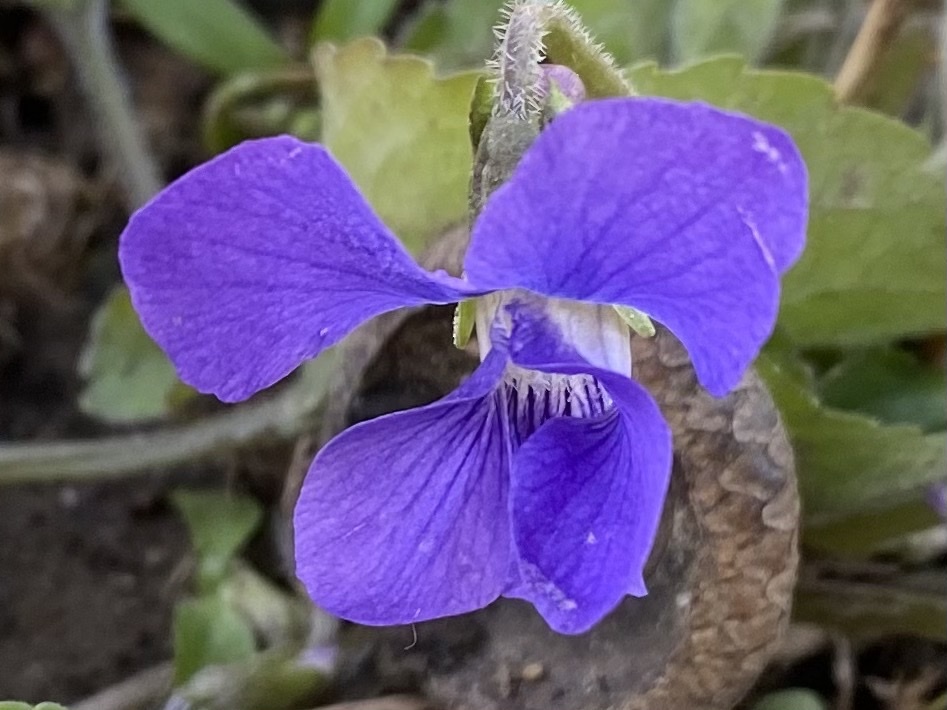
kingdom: Plantae
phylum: Tracheophyta
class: Magnoliopsida
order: Malpighiales
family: Violaceae
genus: Viola
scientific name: Viola sororia
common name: Dooryard violet
